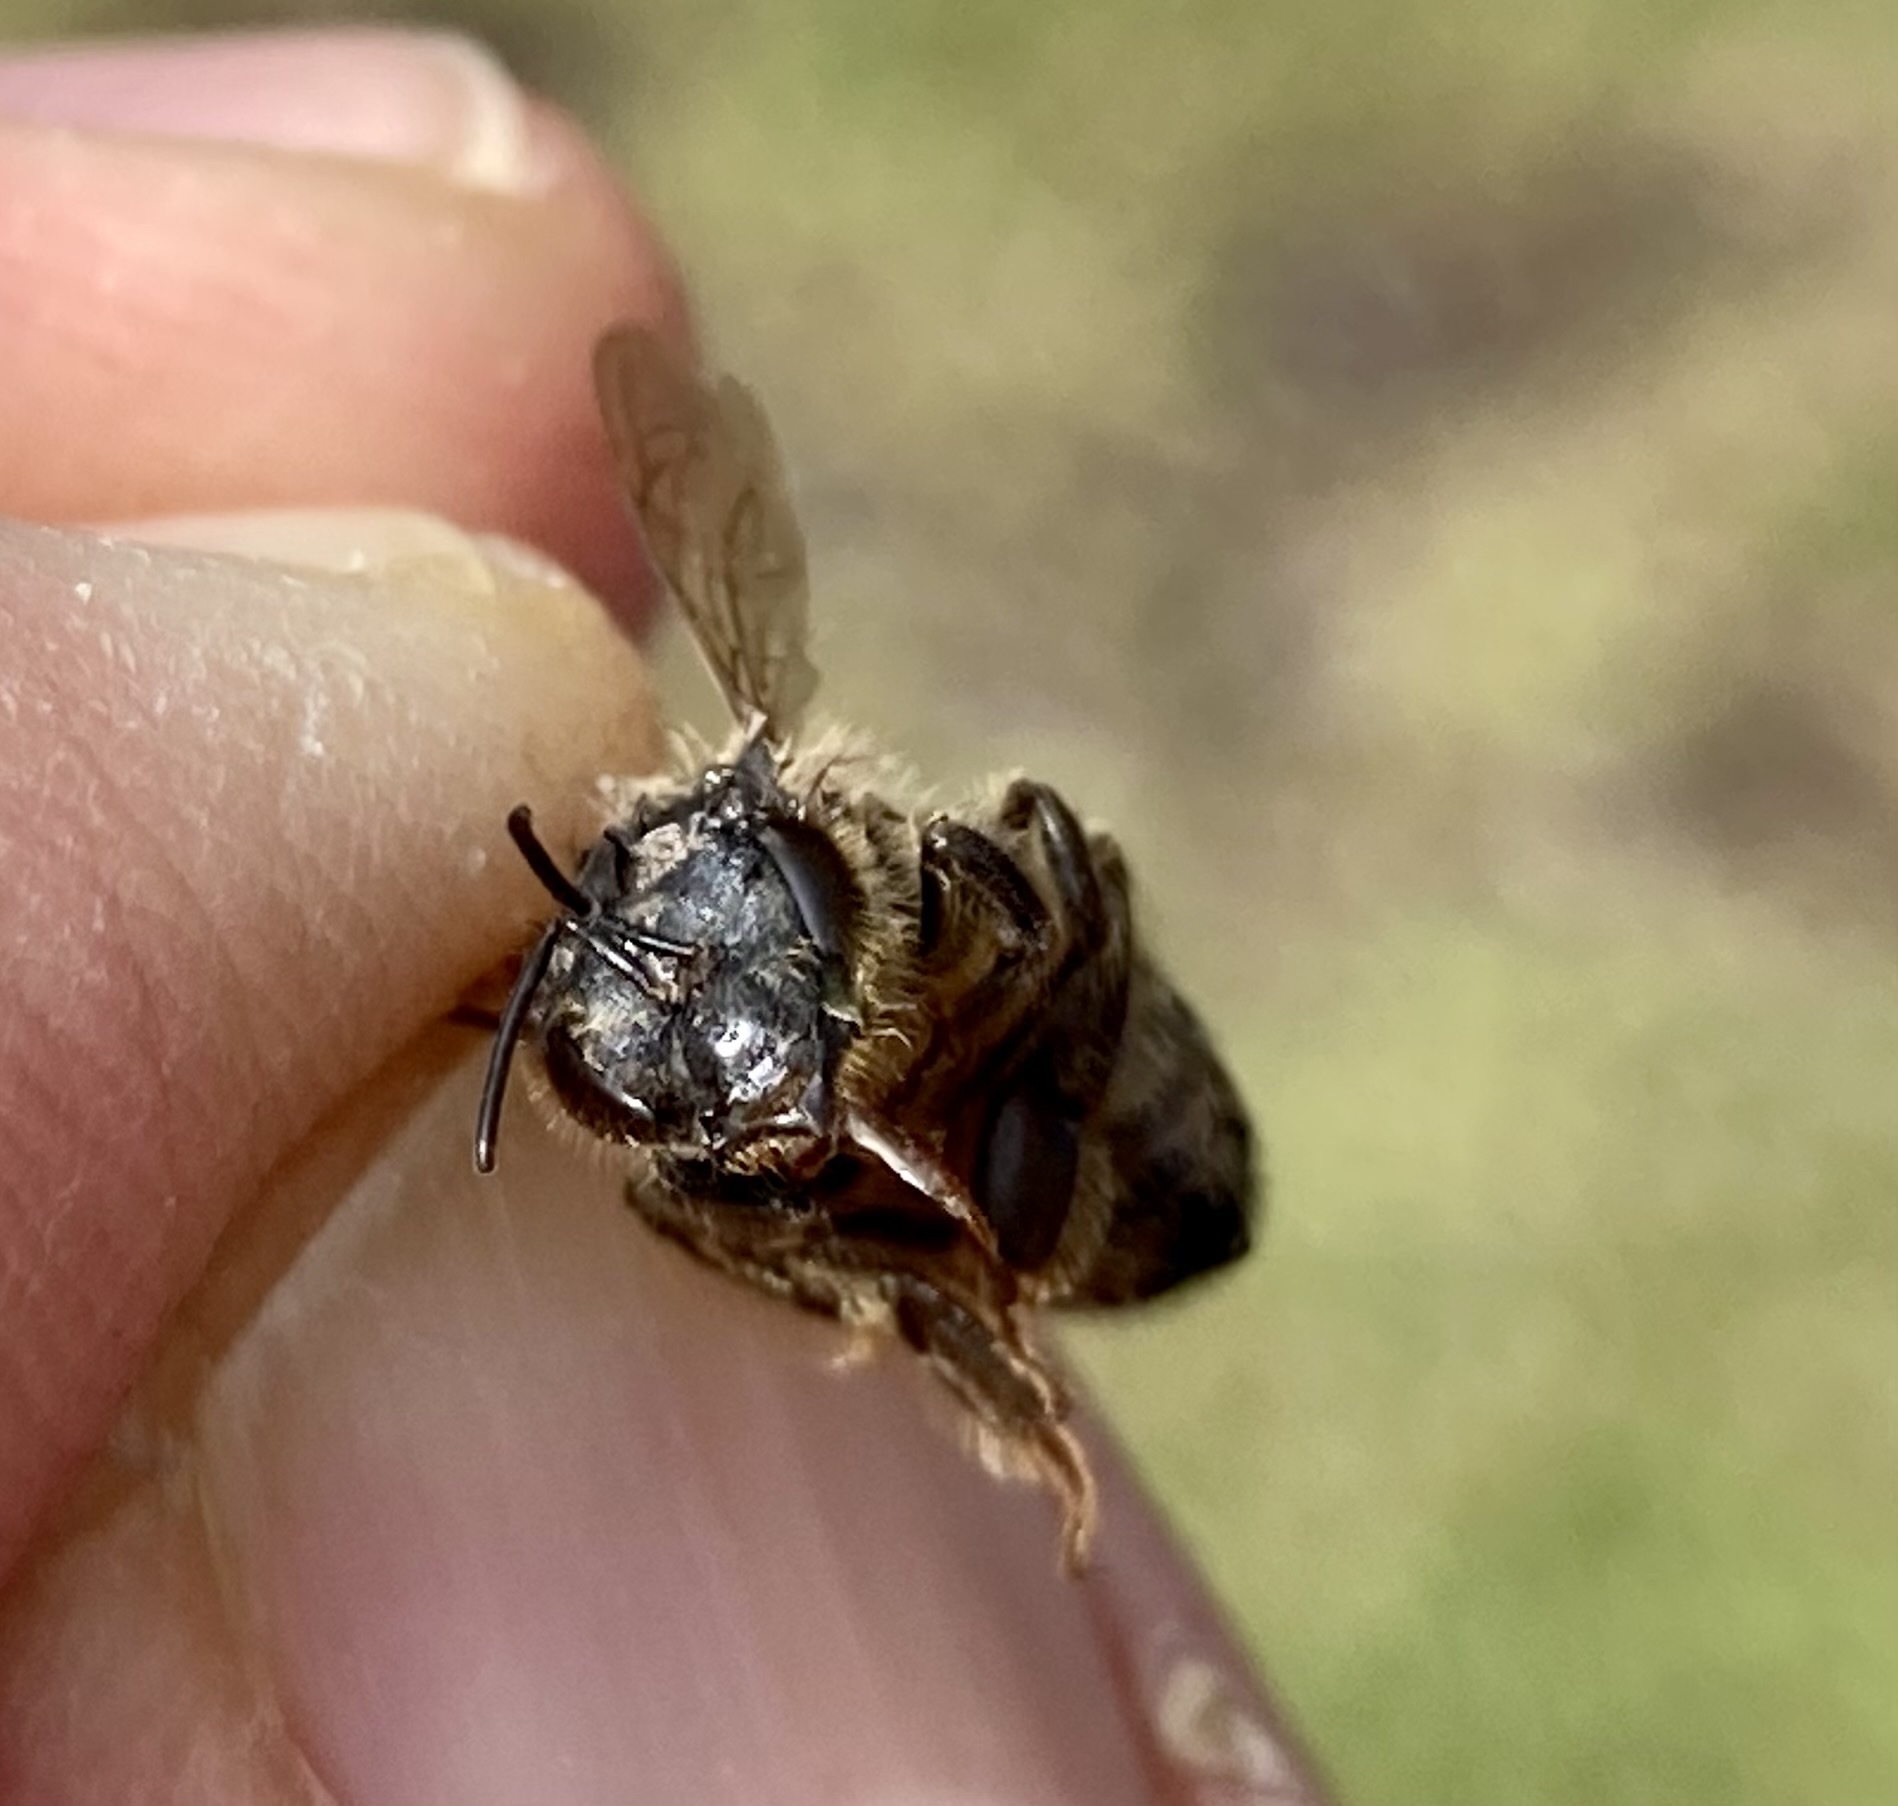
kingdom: Animalia
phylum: Arthropoda
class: Insecta
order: Hymenoptera
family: Apidae
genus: Apis
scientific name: Apis mellifera
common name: Honey bee
